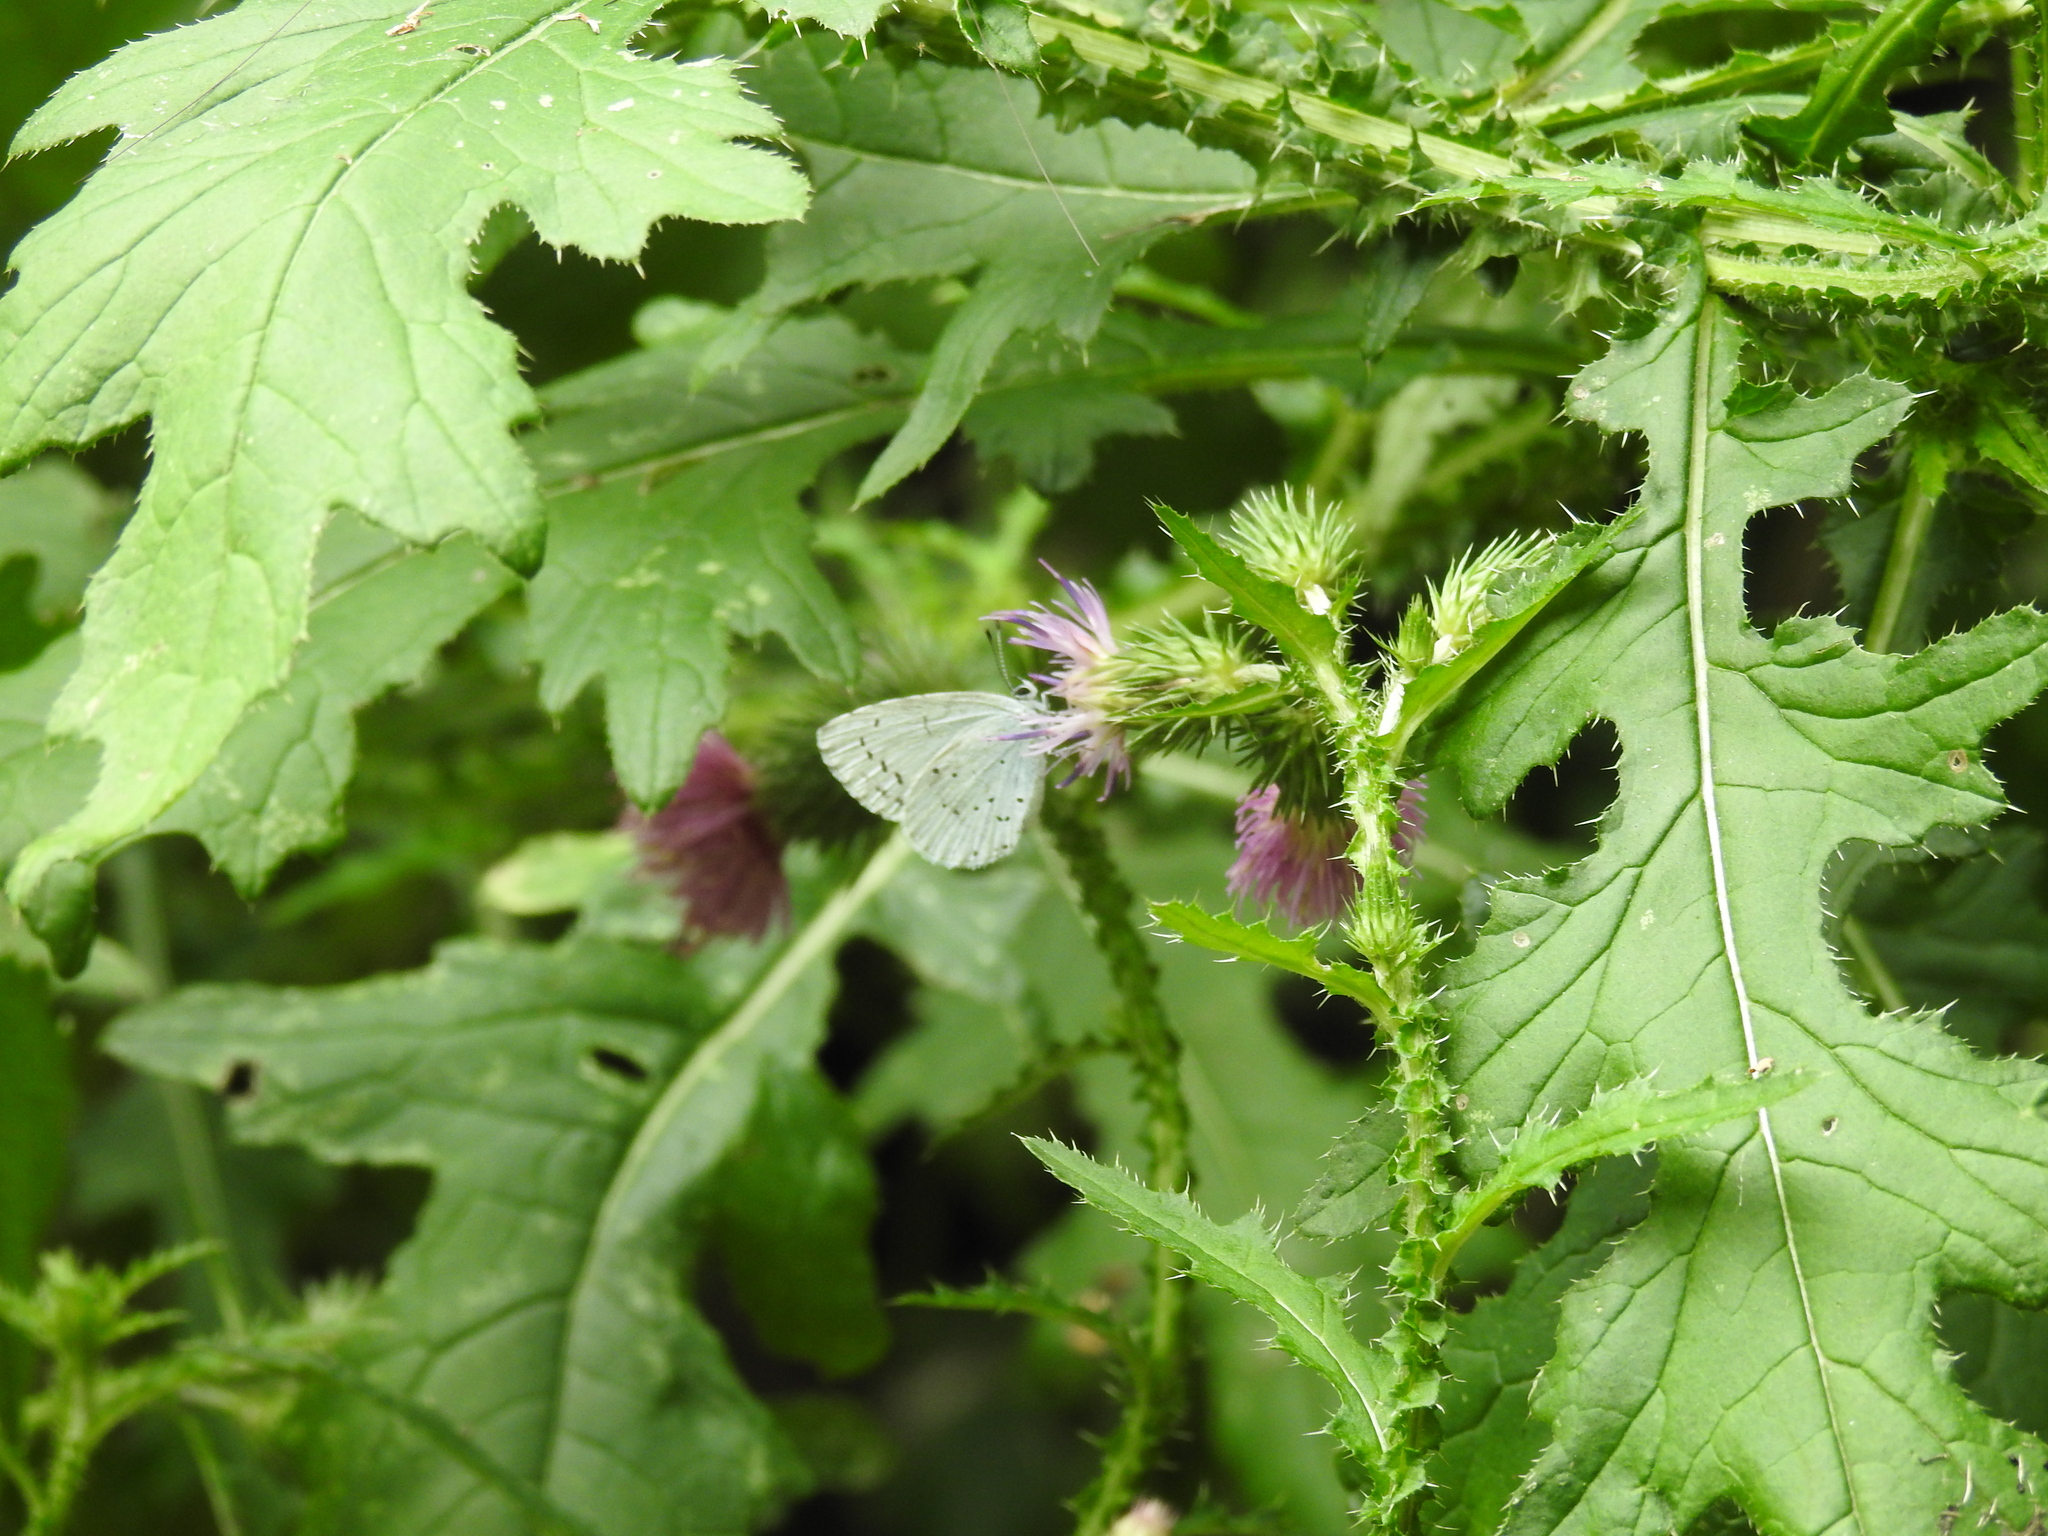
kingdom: Animalia
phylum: Arthropoda
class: Insecta
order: Lepidoptera
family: Lycaenidae
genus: Celastrina
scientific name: Celastrina argiolus
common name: Holly blue
